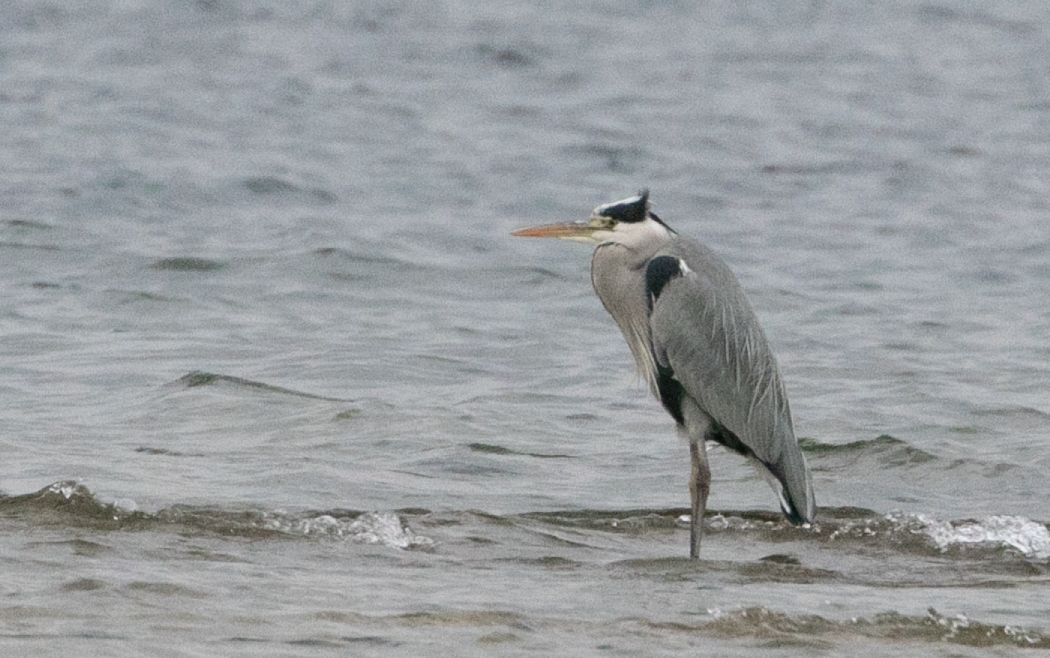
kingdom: Animalia
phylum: Chordata
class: Aves
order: Pelecaniformes
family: Ardeidae
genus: Ardea
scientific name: Ardea cinerea
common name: Grey heron
